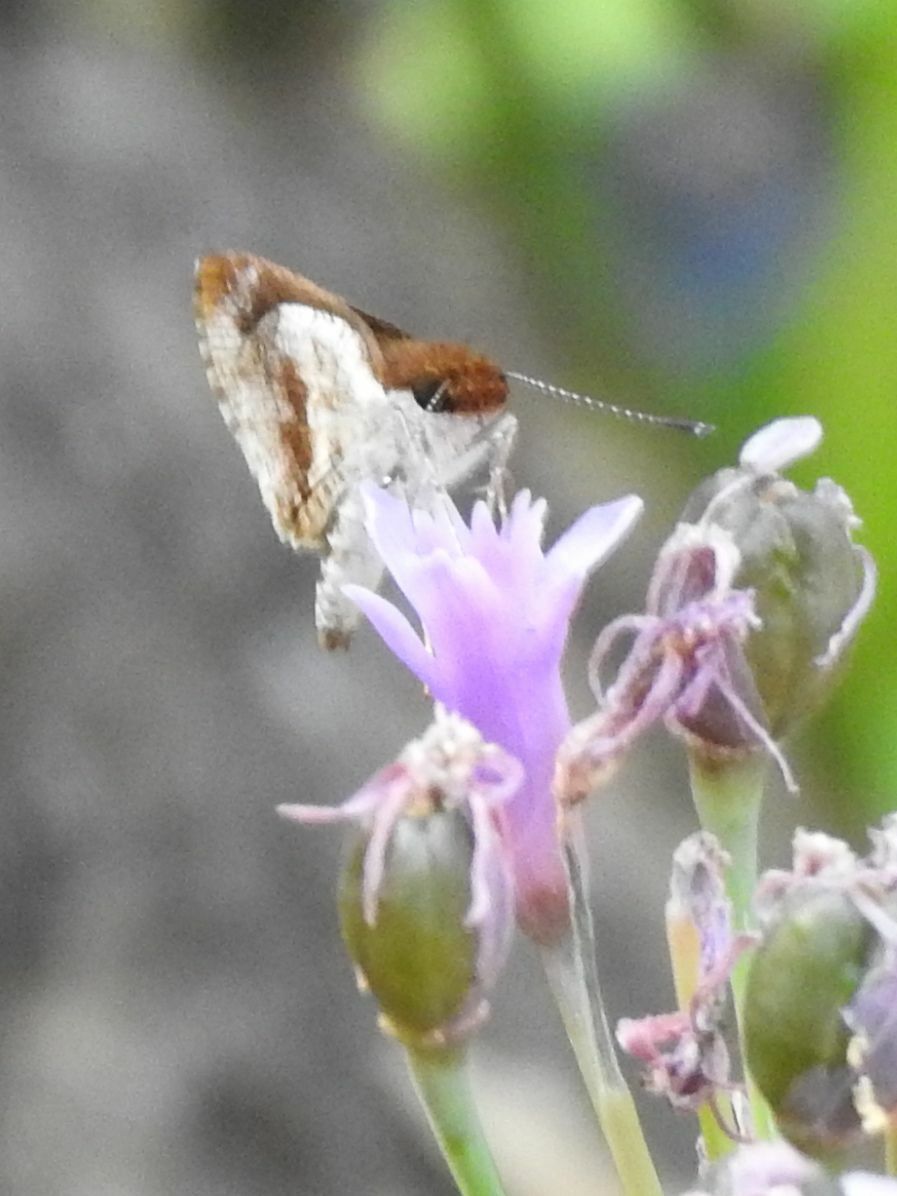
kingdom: Animalia
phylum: Arthropoda
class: Insecta
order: Lepidoptera
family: Hesperiidae
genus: Acleros
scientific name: Acleros mackenii
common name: Shade dart
